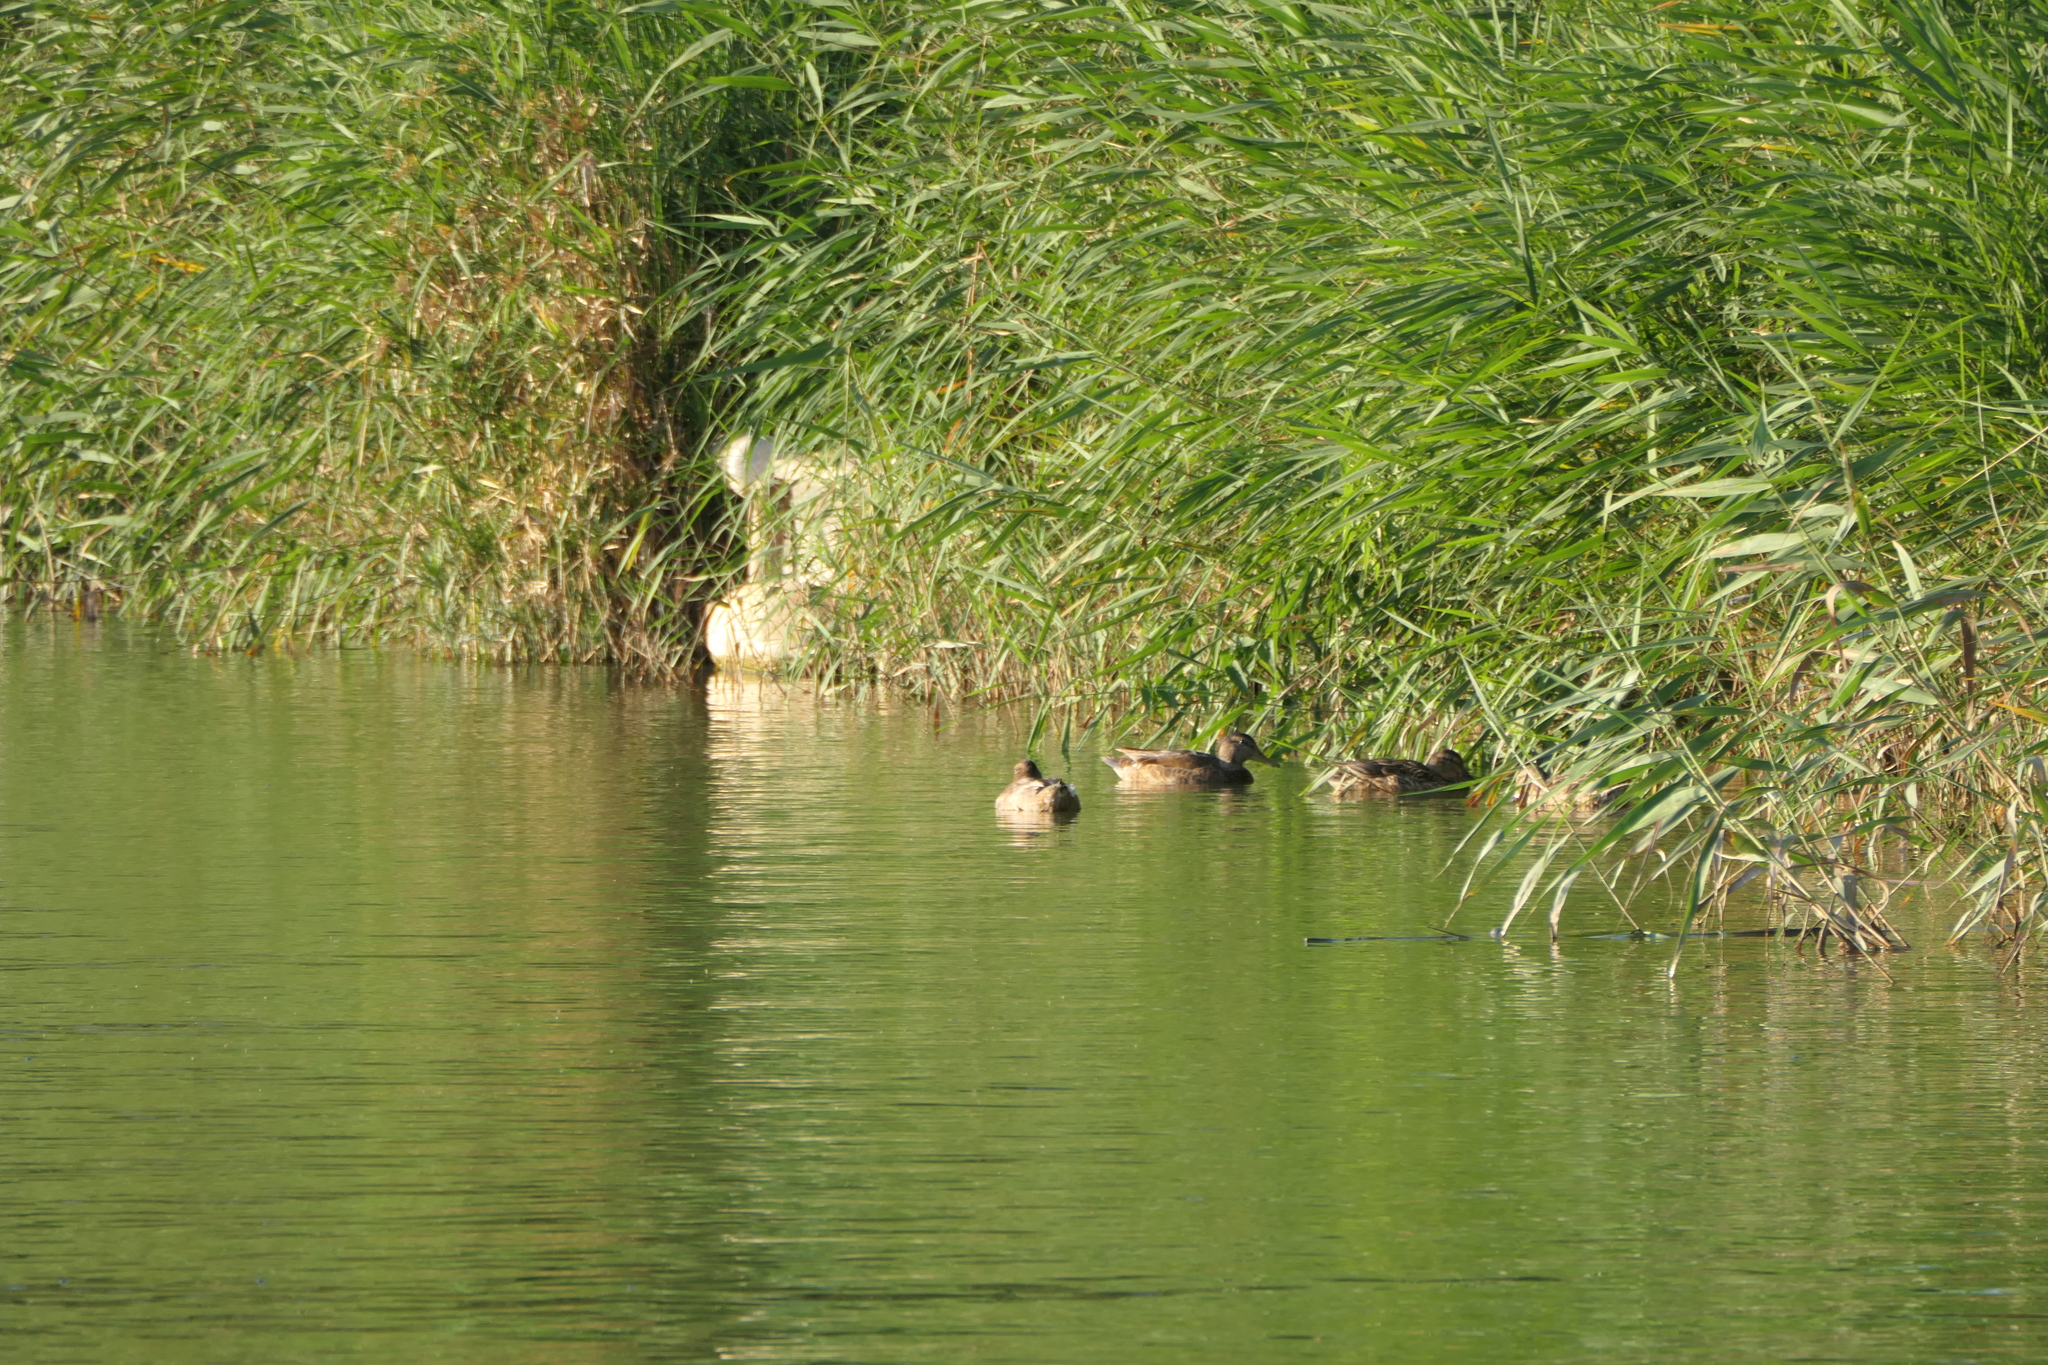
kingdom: Animalia
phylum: Chordata
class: Aves
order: Anseriformes
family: Anatidae
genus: Anas
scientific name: Anas platyrhynchos
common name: Mallard
